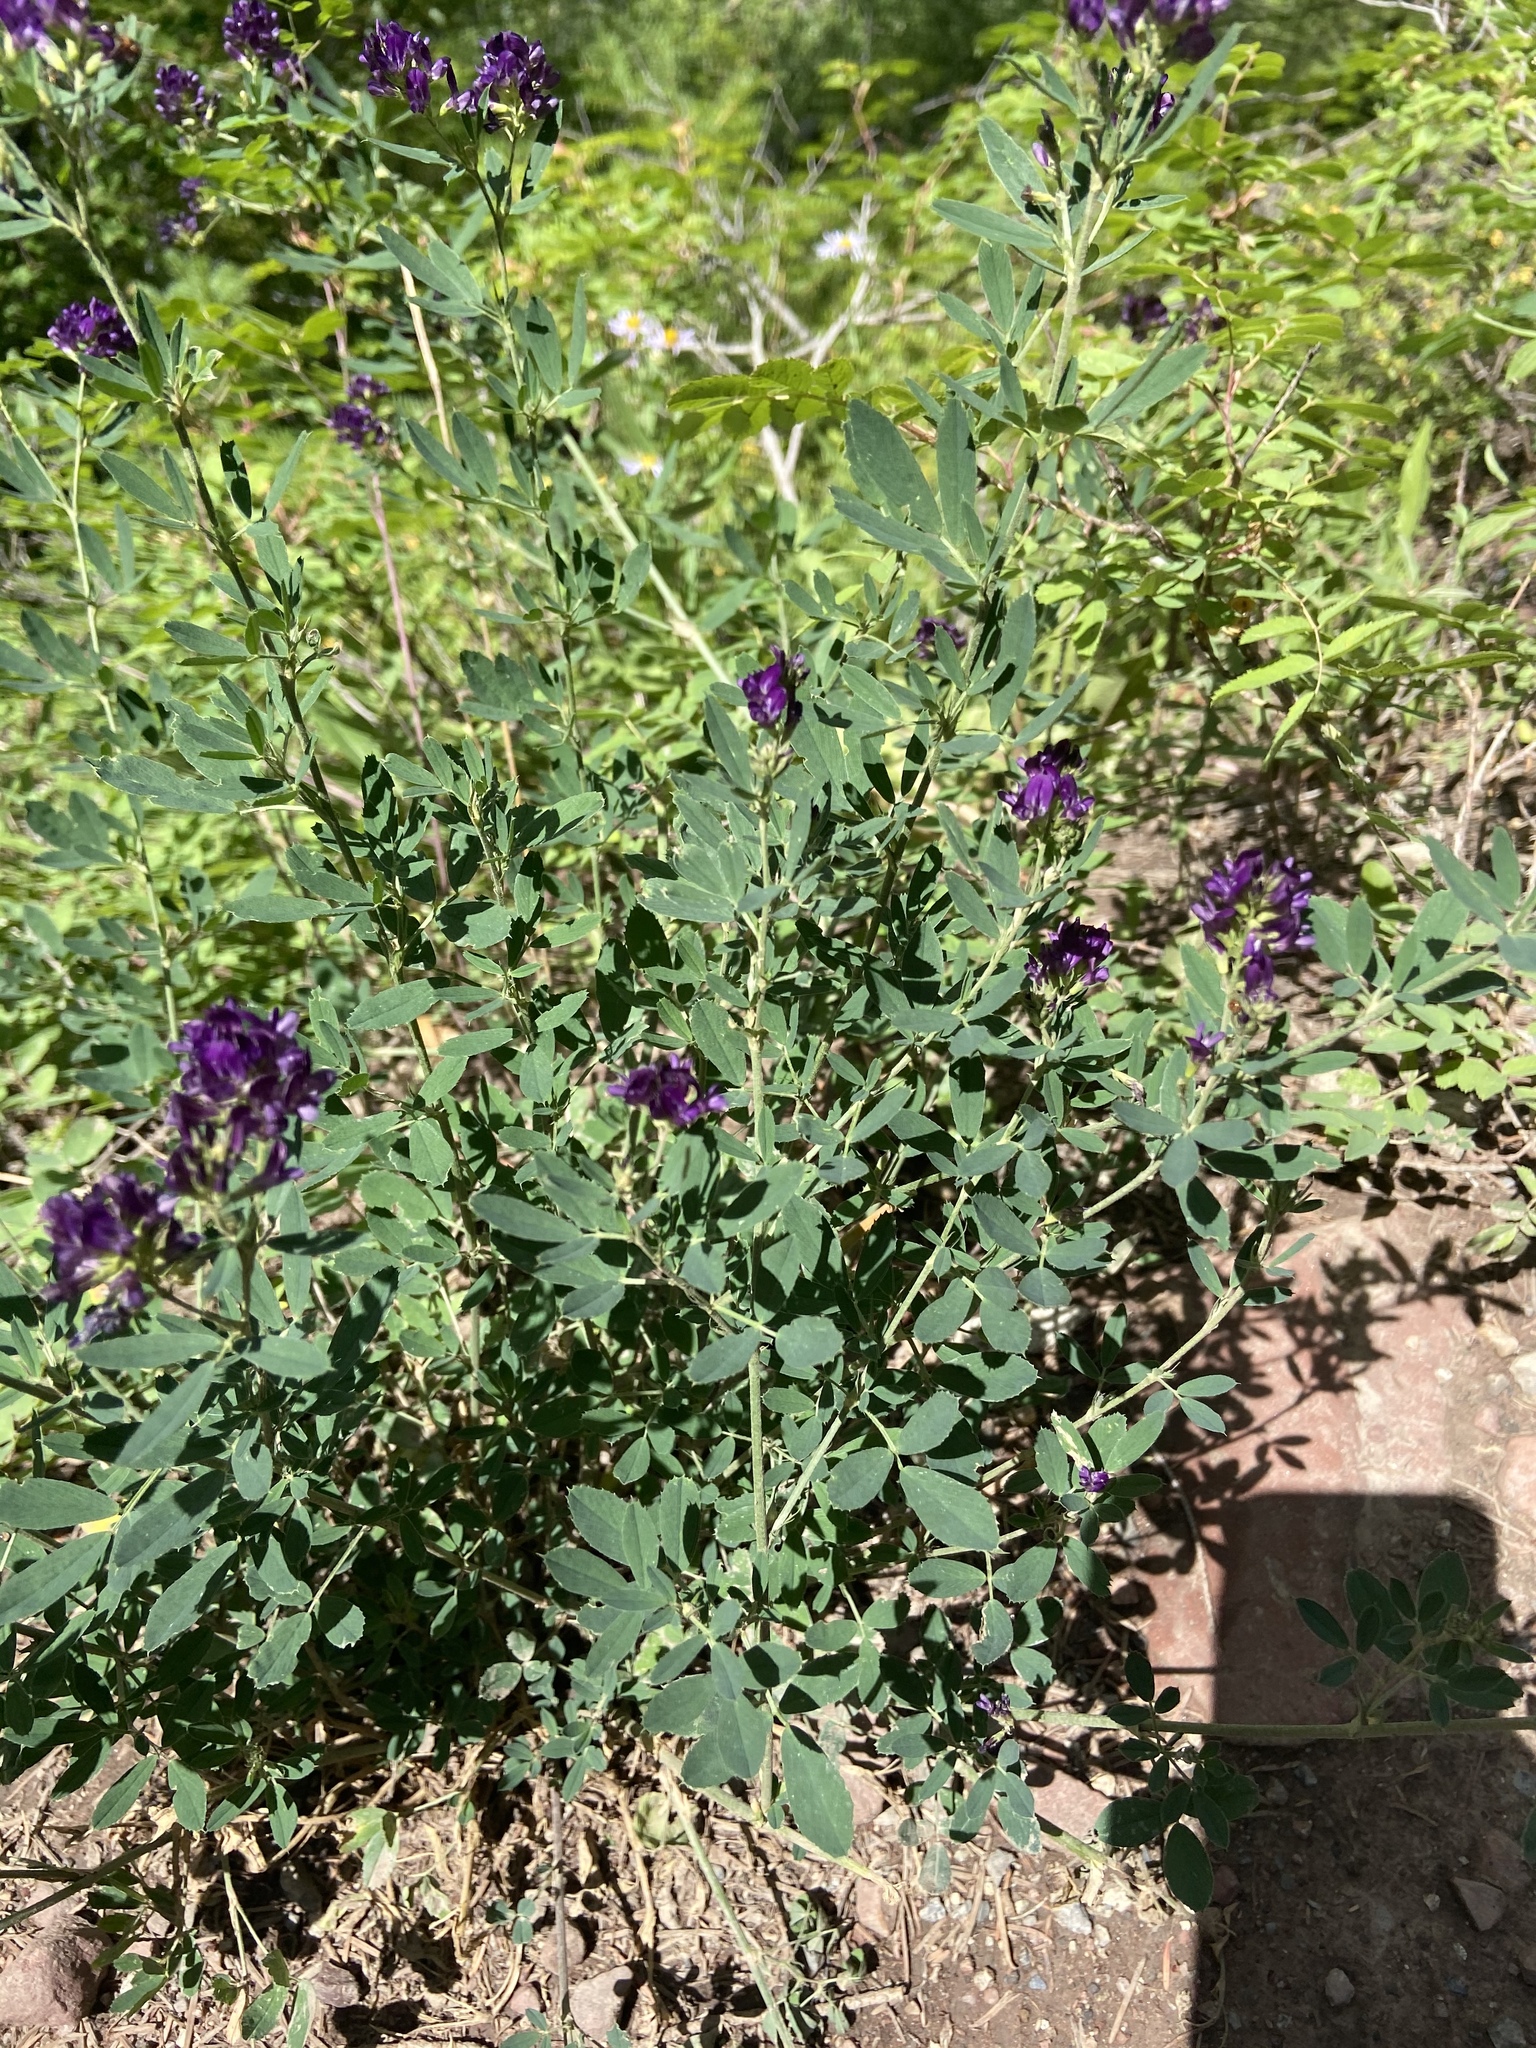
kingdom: Plantae
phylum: Tracheophyta
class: Magnoliopsida
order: Fabales
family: Fabaceae
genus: Medicago
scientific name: Medicago sativa
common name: Alfalfa
